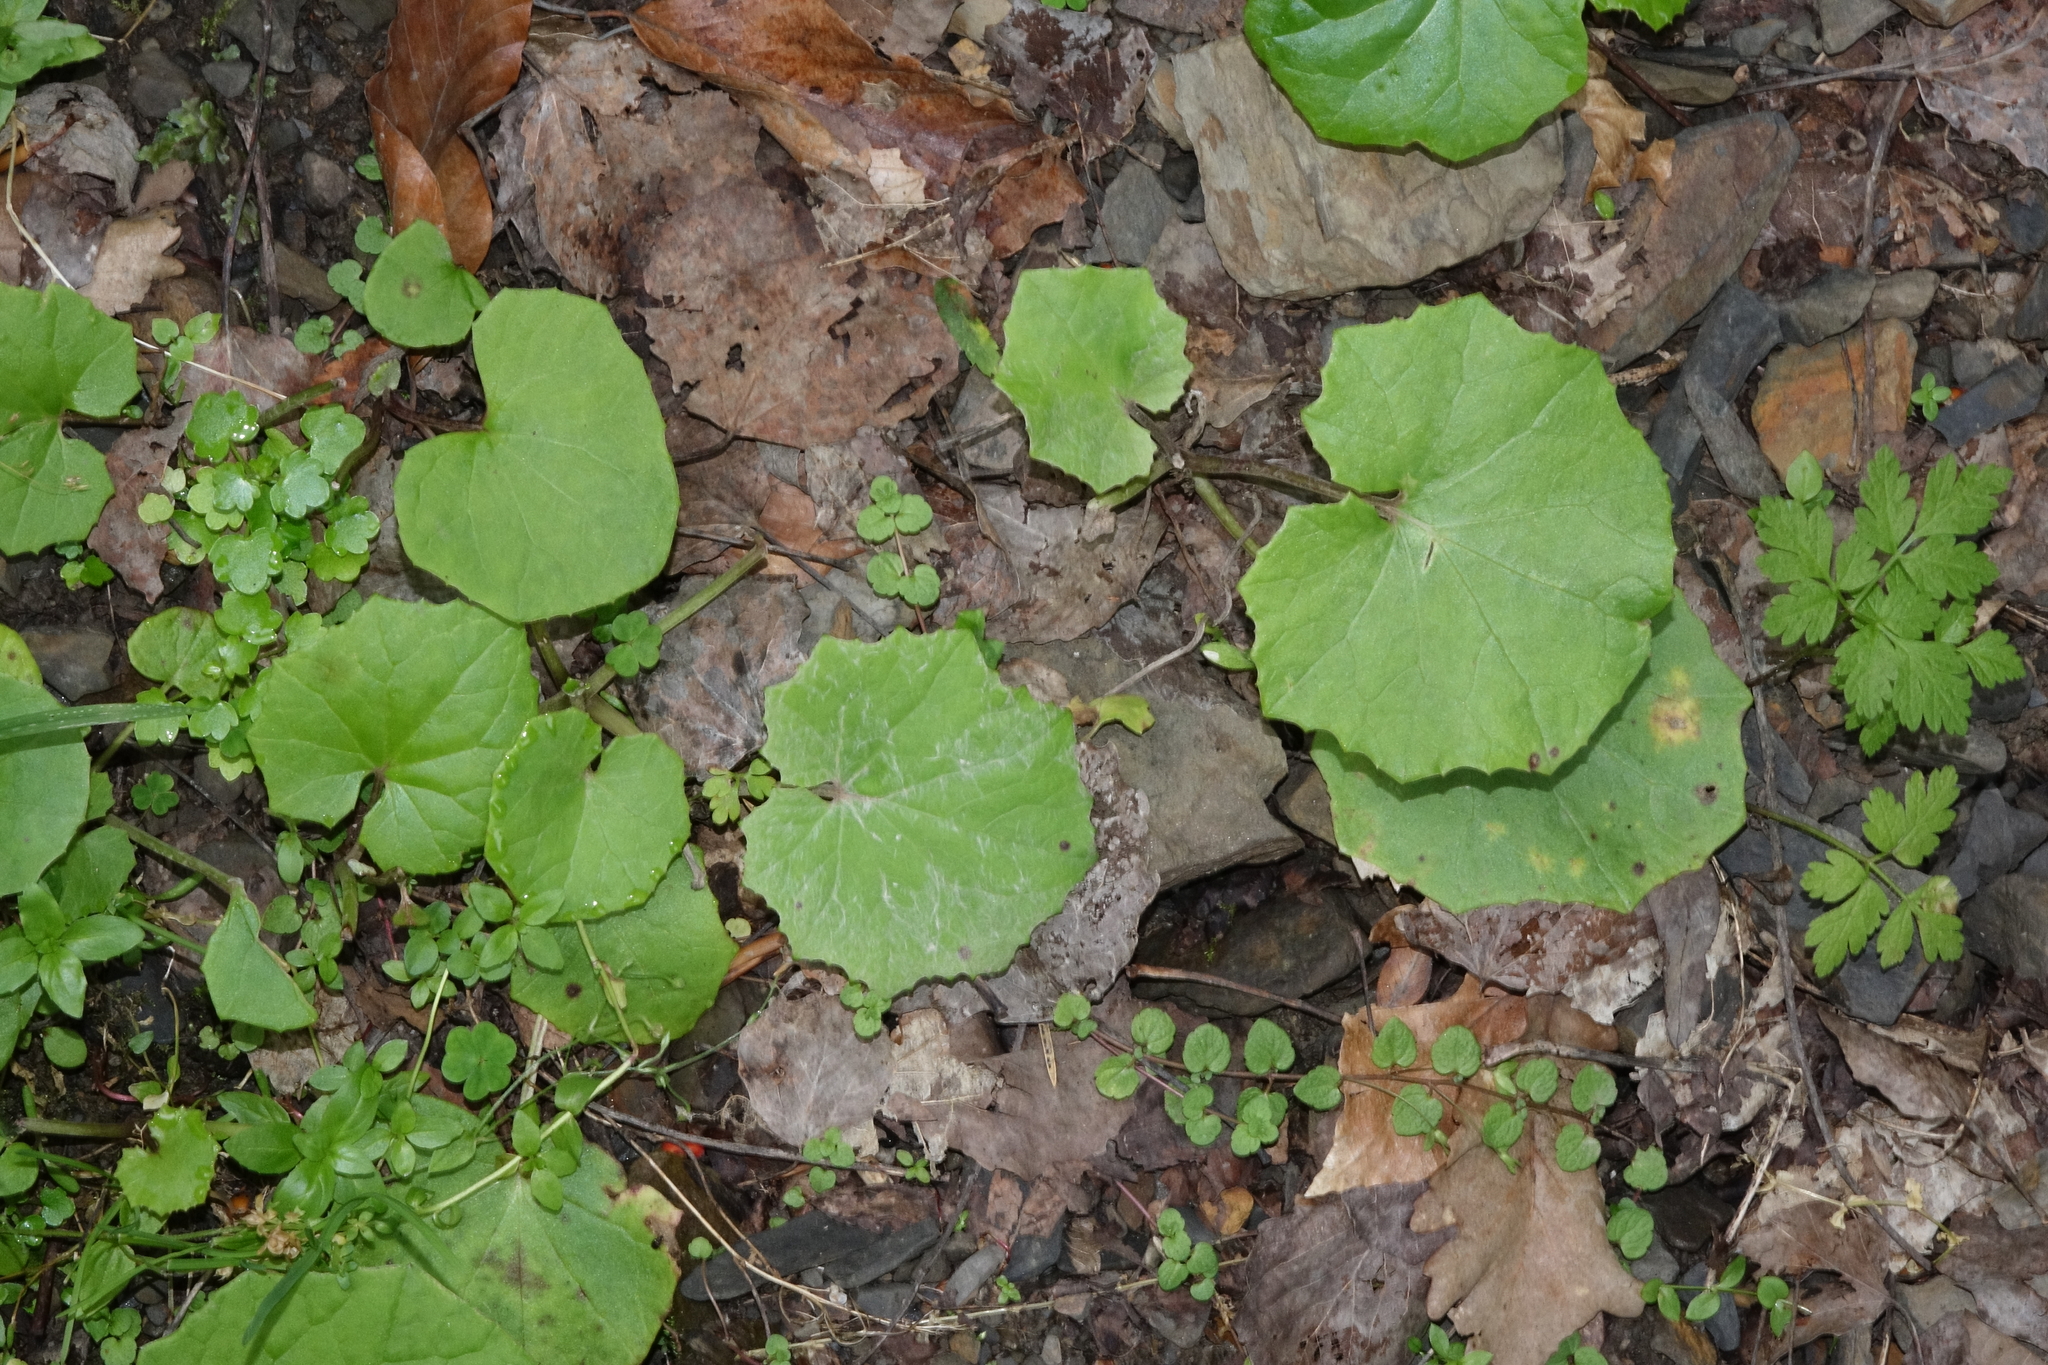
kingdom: Plantae
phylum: Tracheophyta
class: Magnoliopsida
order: Asterales
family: Asteraceae
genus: Tussilago
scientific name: Tussilago farfara
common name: Coltsfoot
